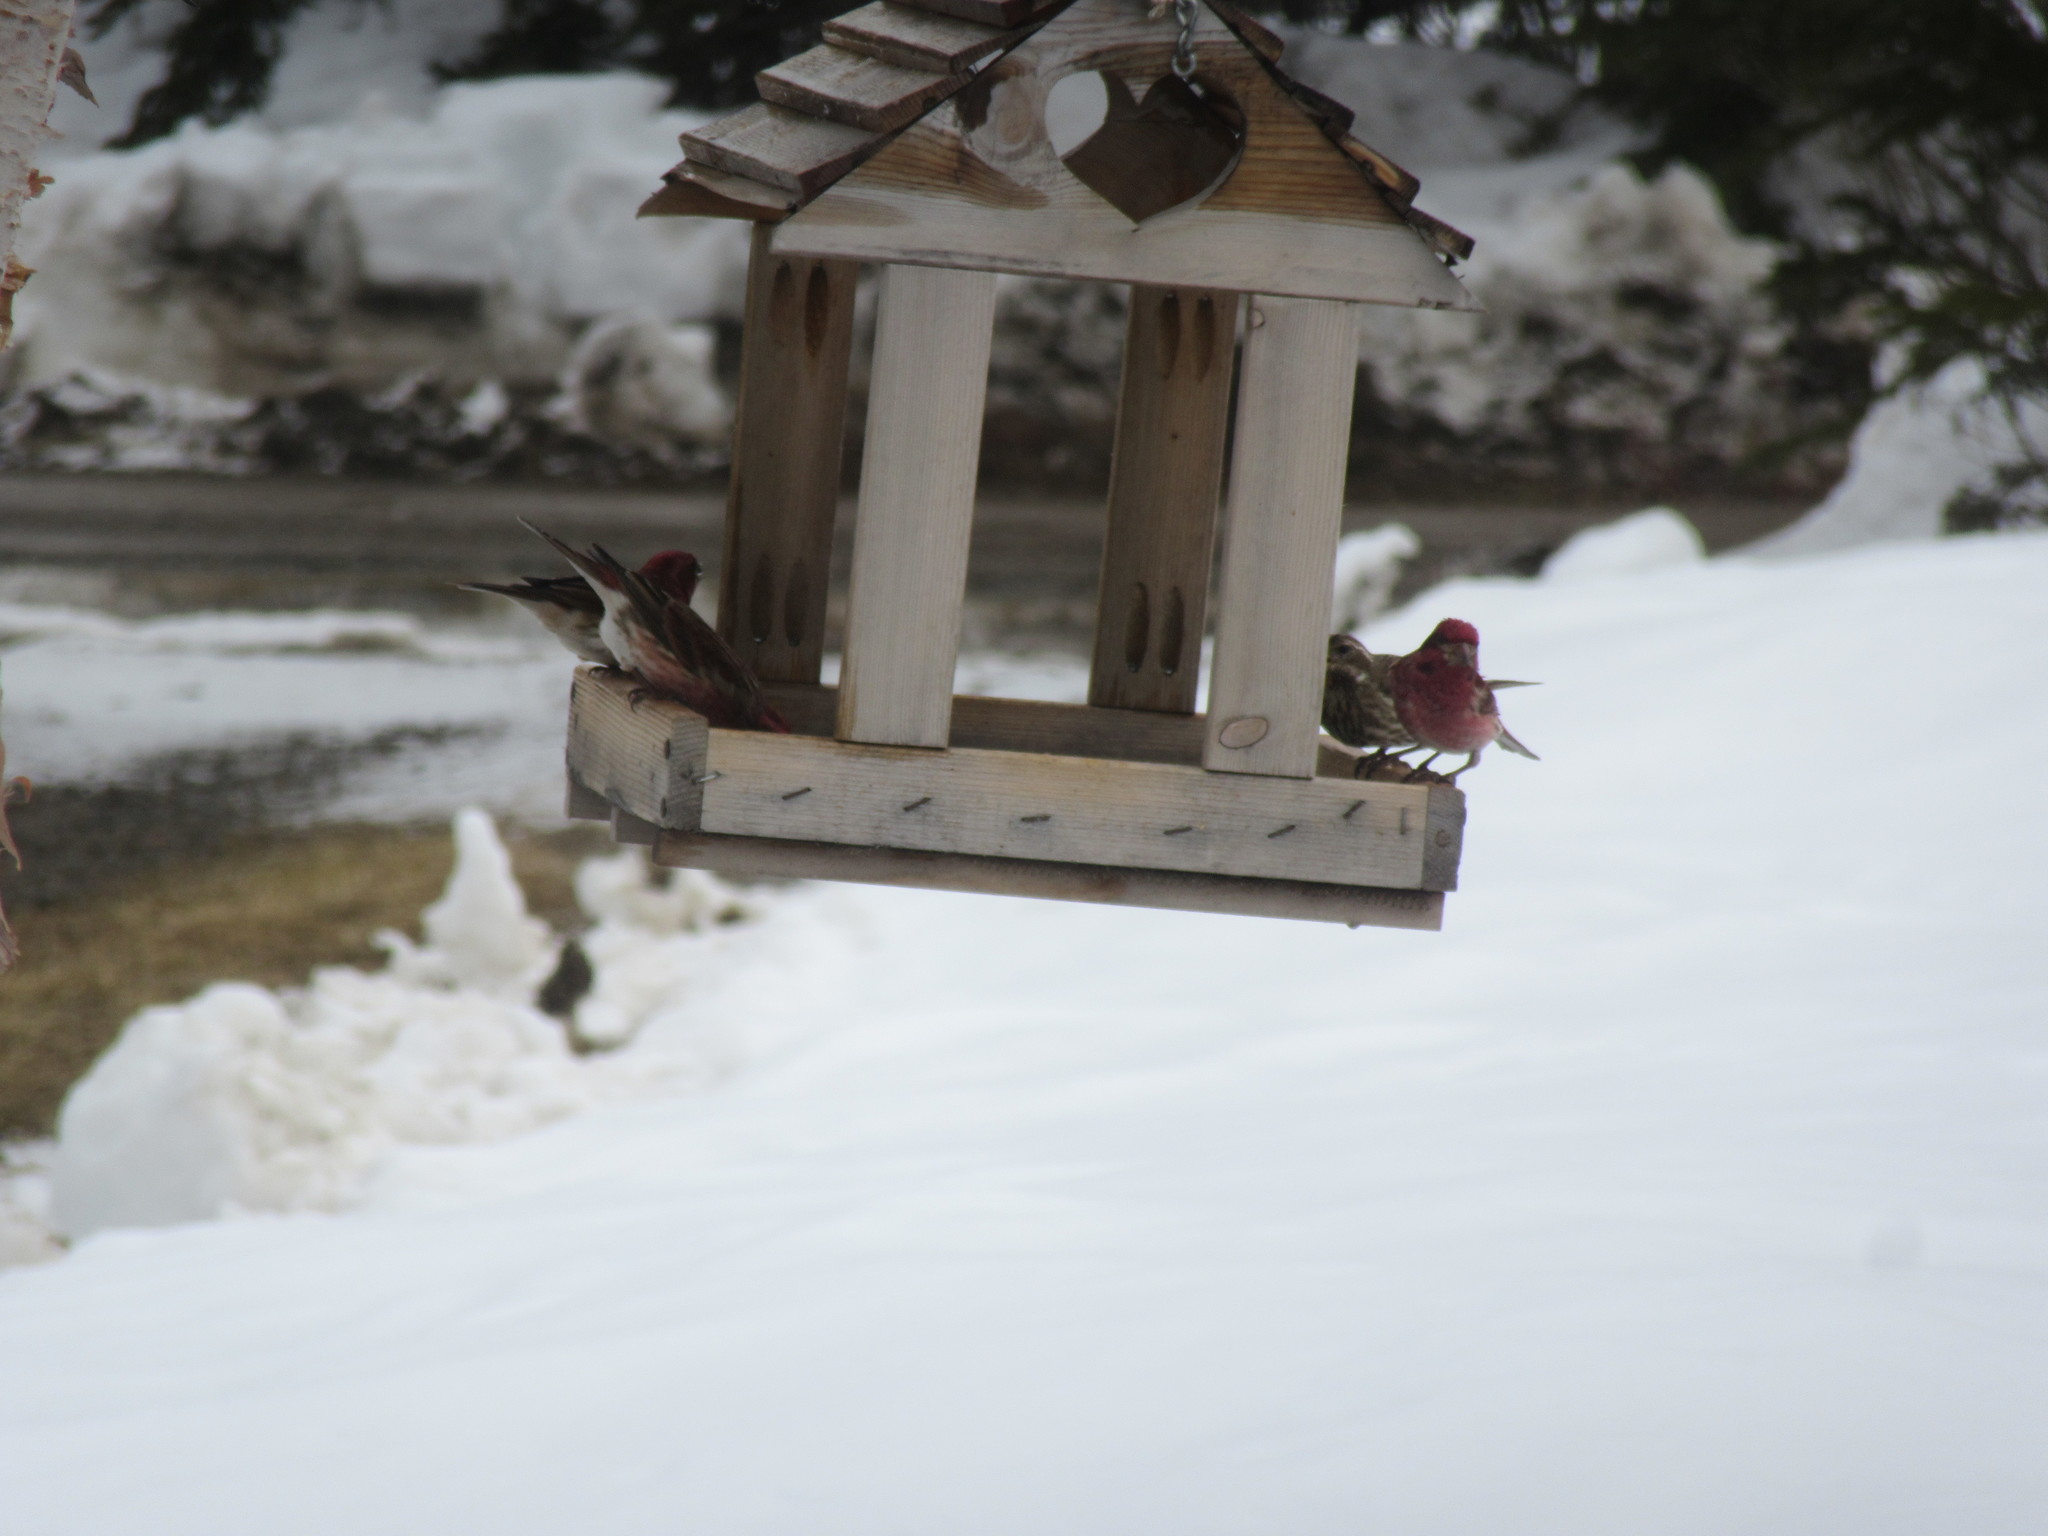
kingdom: Animalia
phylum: Chordata
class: Aves
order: Passeriformes
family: Fringillidae
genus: Haemorhous
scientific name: Haemorhous purpureus
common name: Purple finch
